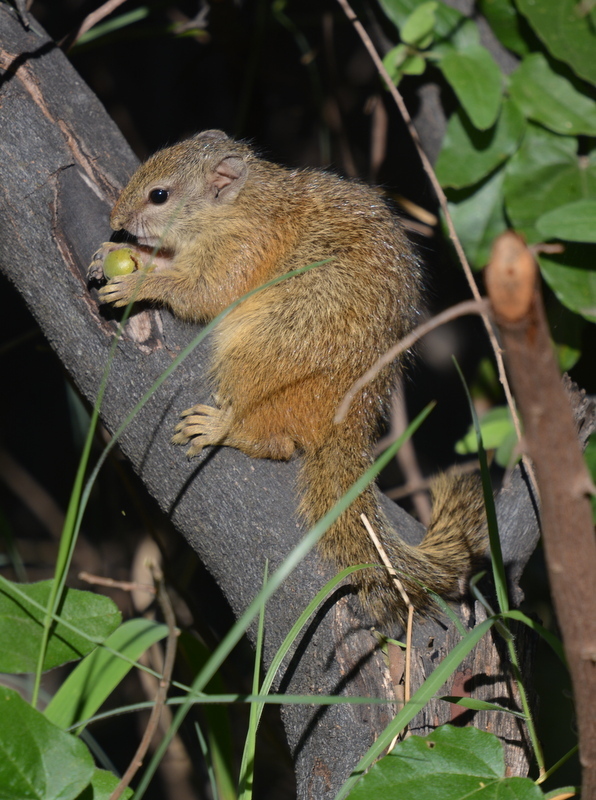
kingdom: Animalia
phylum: Chordata
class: Mammalia
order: Rodentia
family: Sciuridae
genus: Paraxerus
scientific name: Paraxerus cepapi
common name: Smith's bush squirrel
